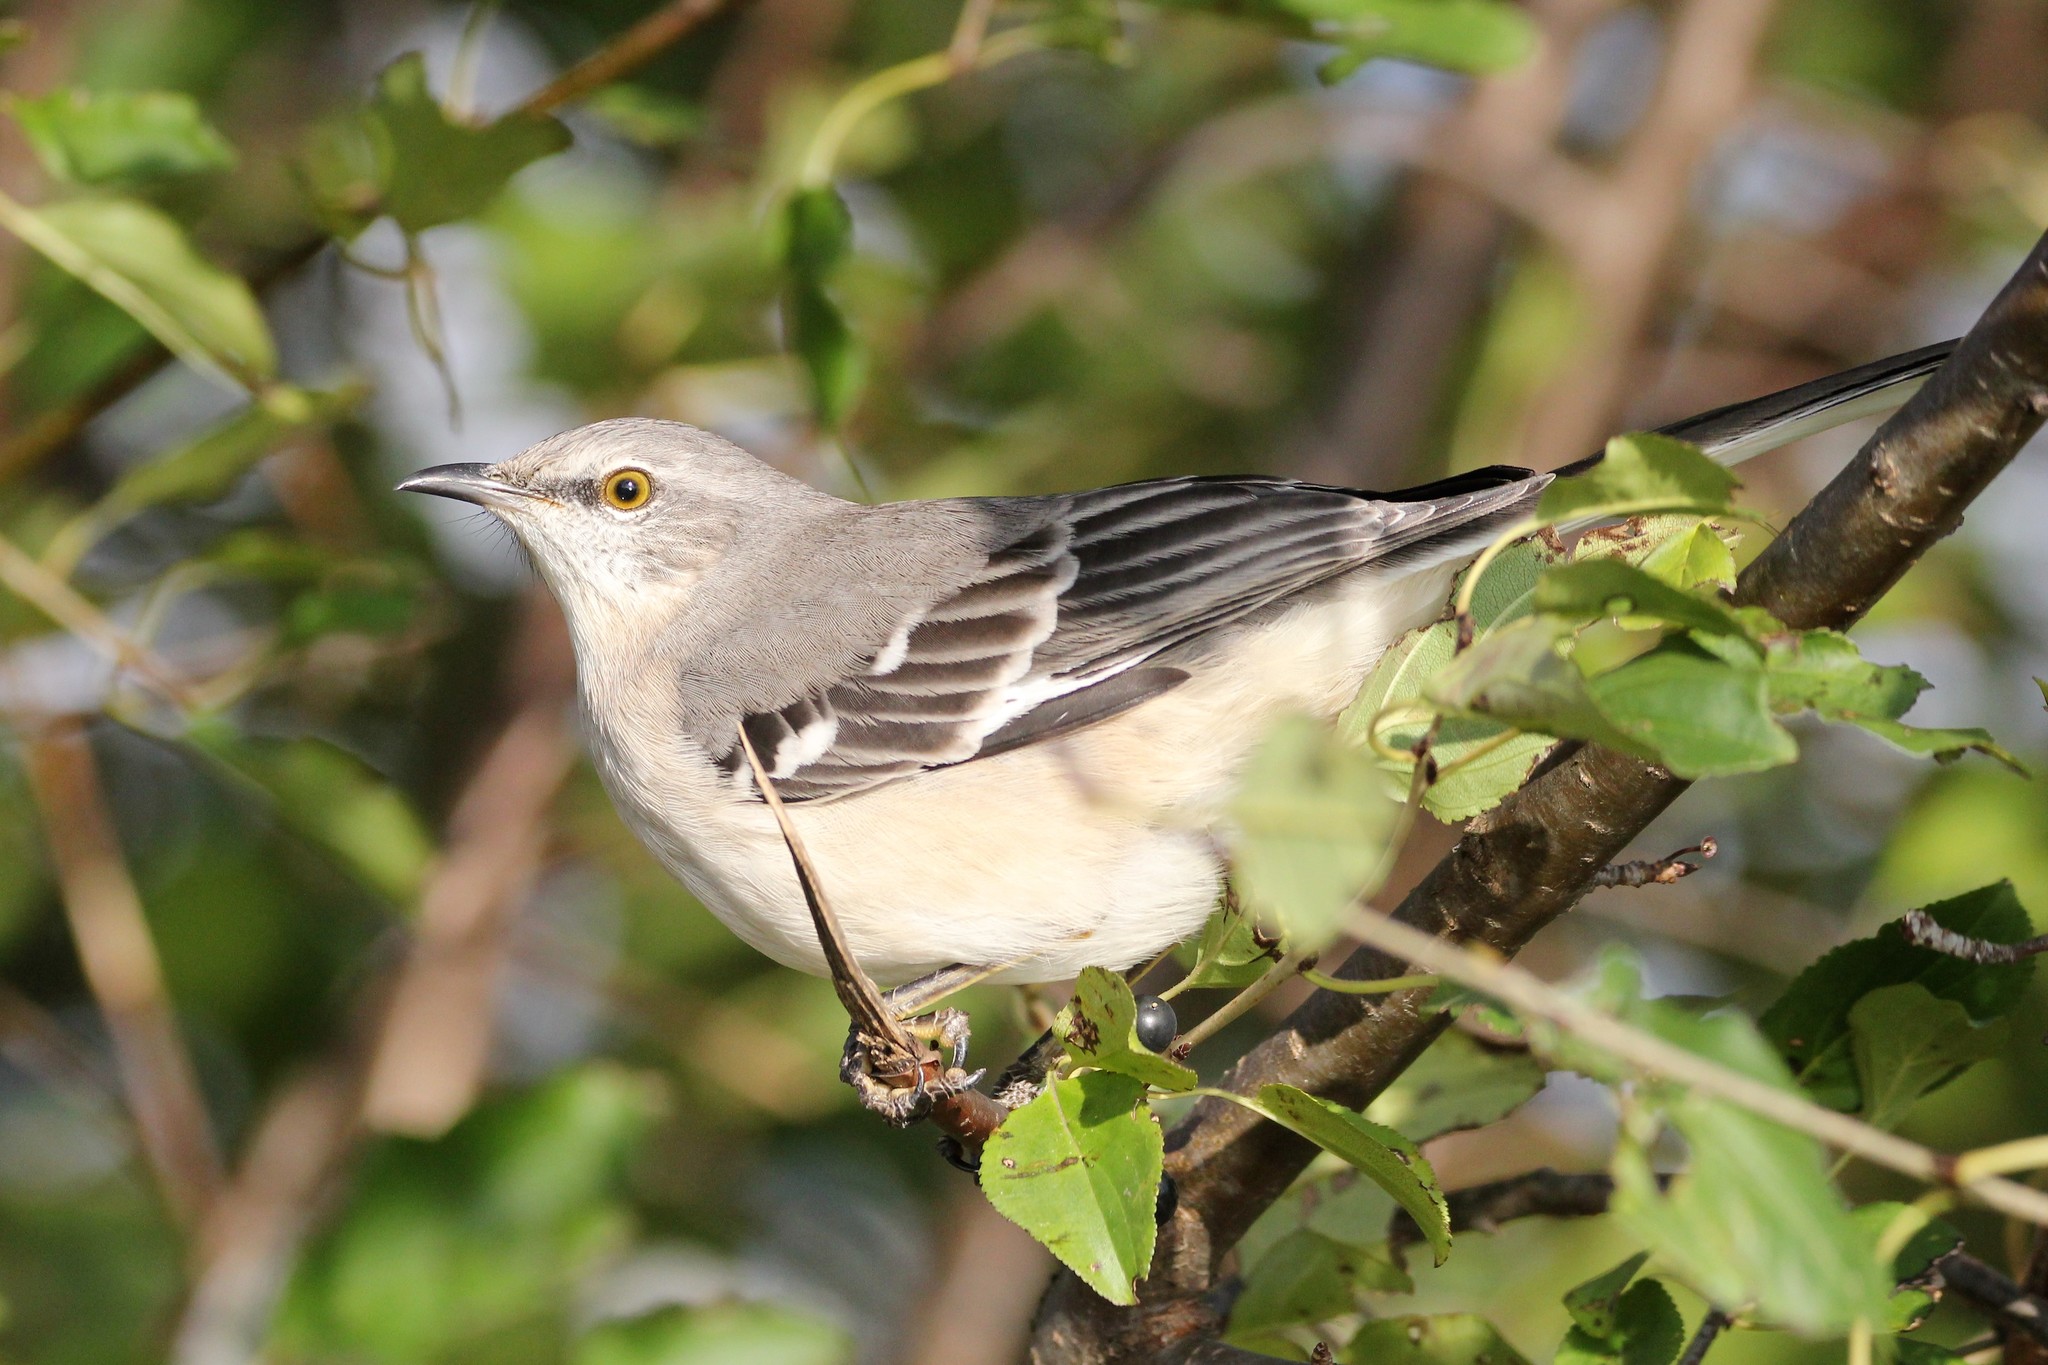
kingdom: Animalia
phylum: Chordata
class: Aves
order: Passeriformes
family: Mimidae
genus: Mimus
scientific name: Mimus polyglottos
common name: Northern mockingbird
